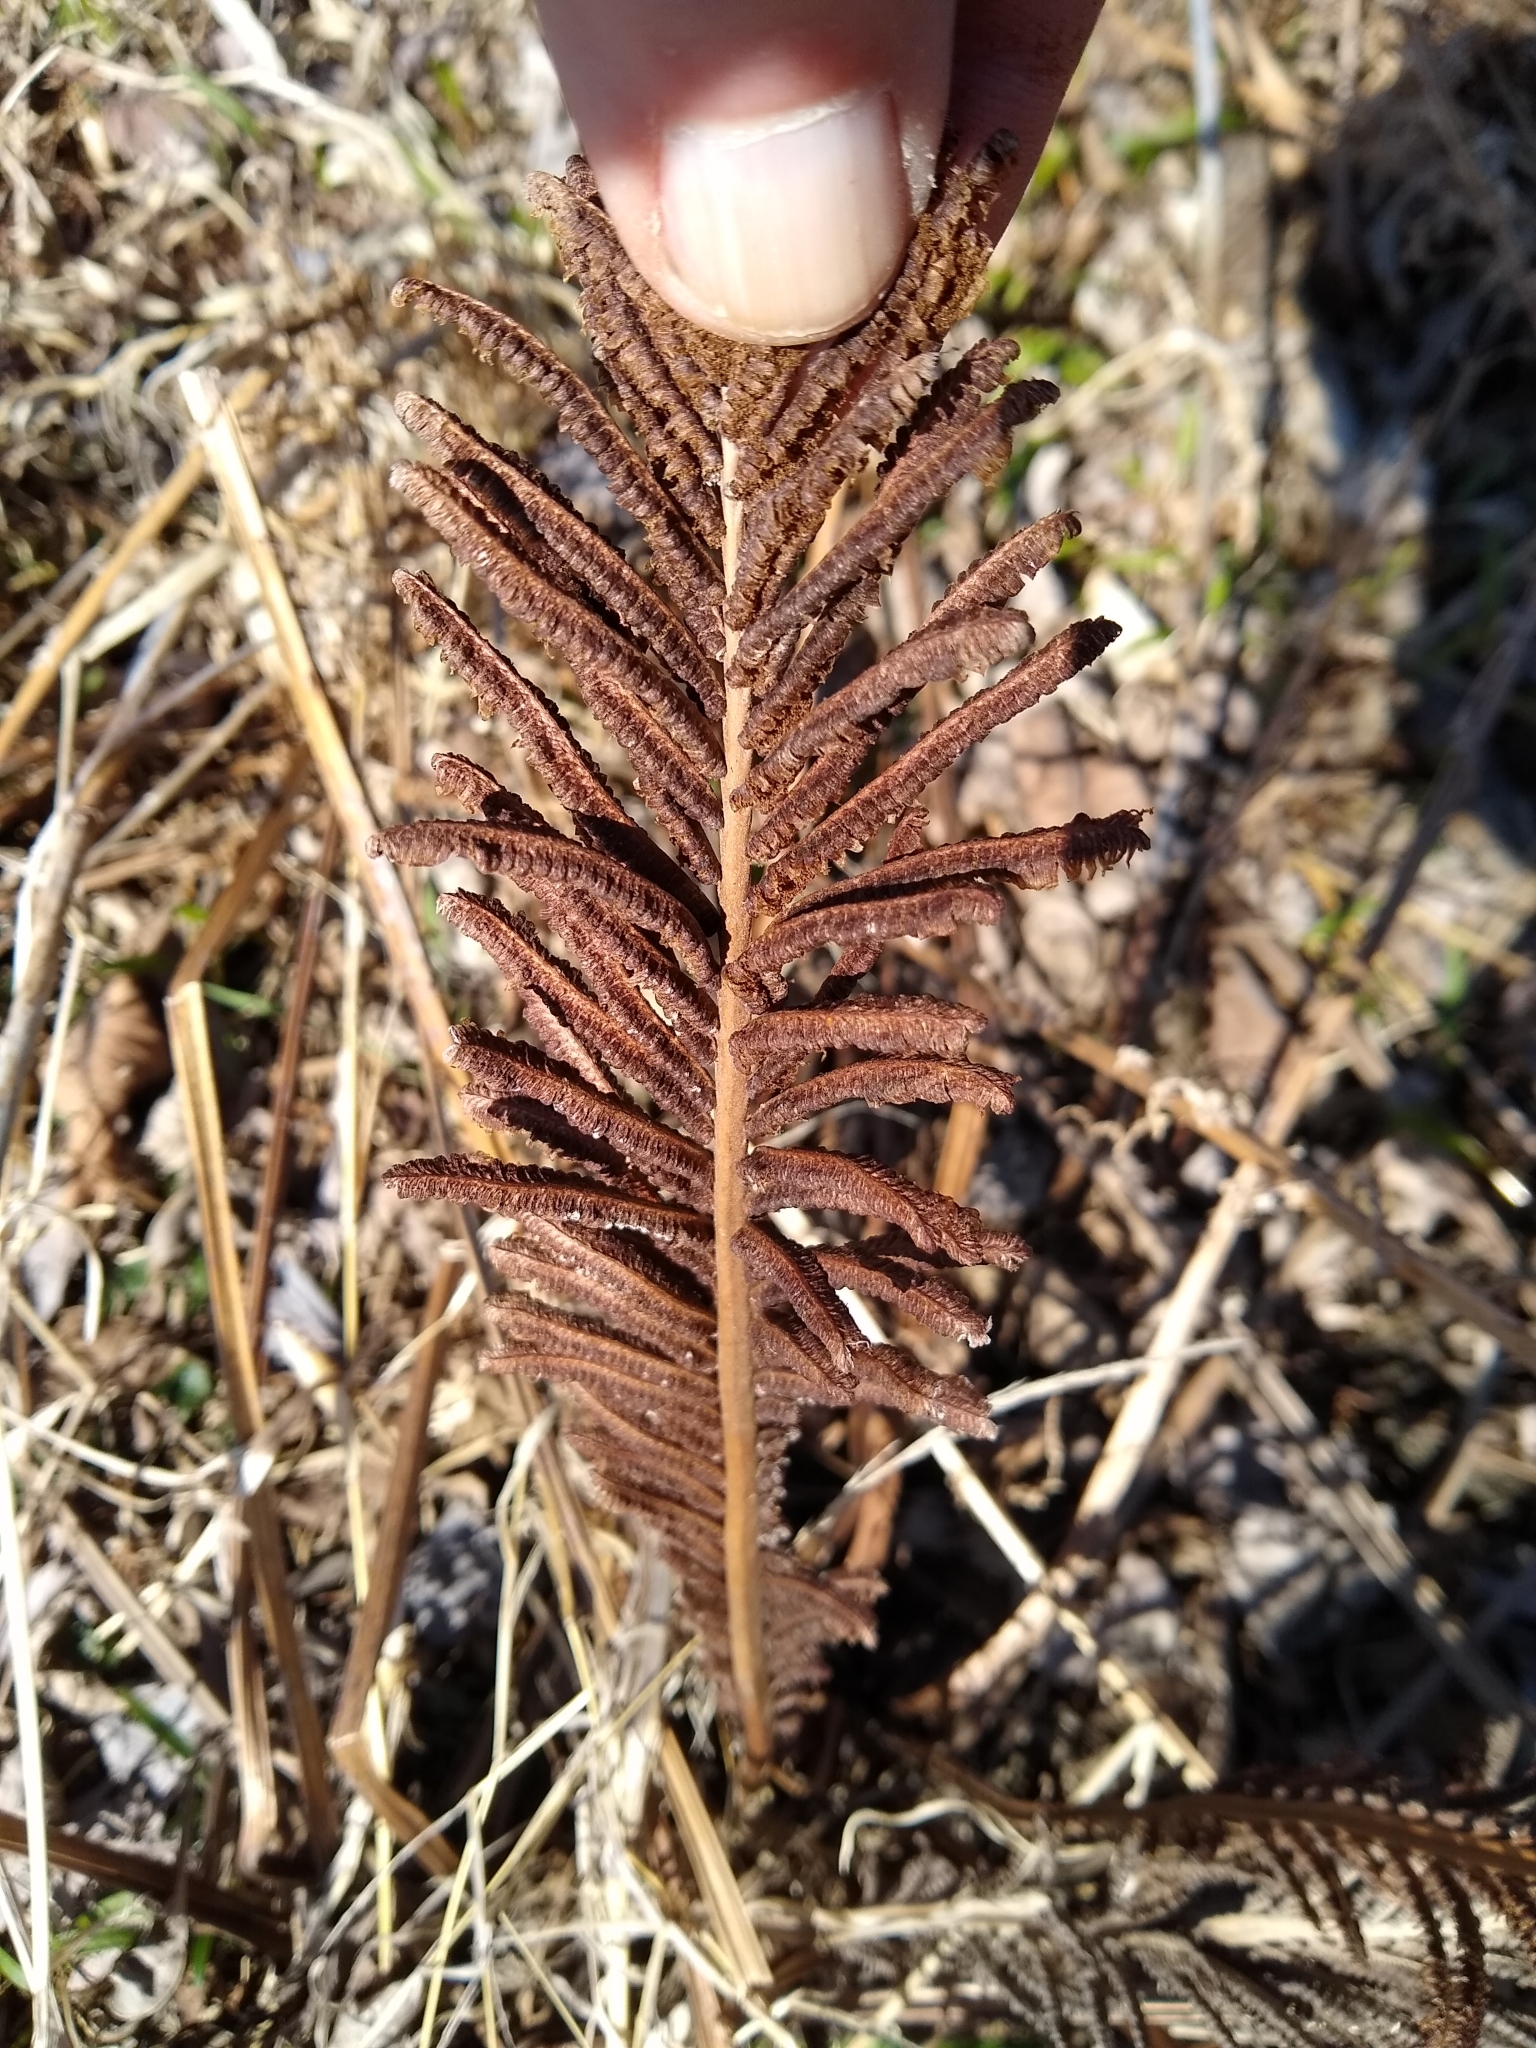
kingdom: Plantae
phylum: Tracheophyta
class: Polypodiopsida
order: Polypodiales
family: Onocleaceae
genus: Matteuccia
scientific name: Matteuccia struthiopteris
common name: Ostrich fern
